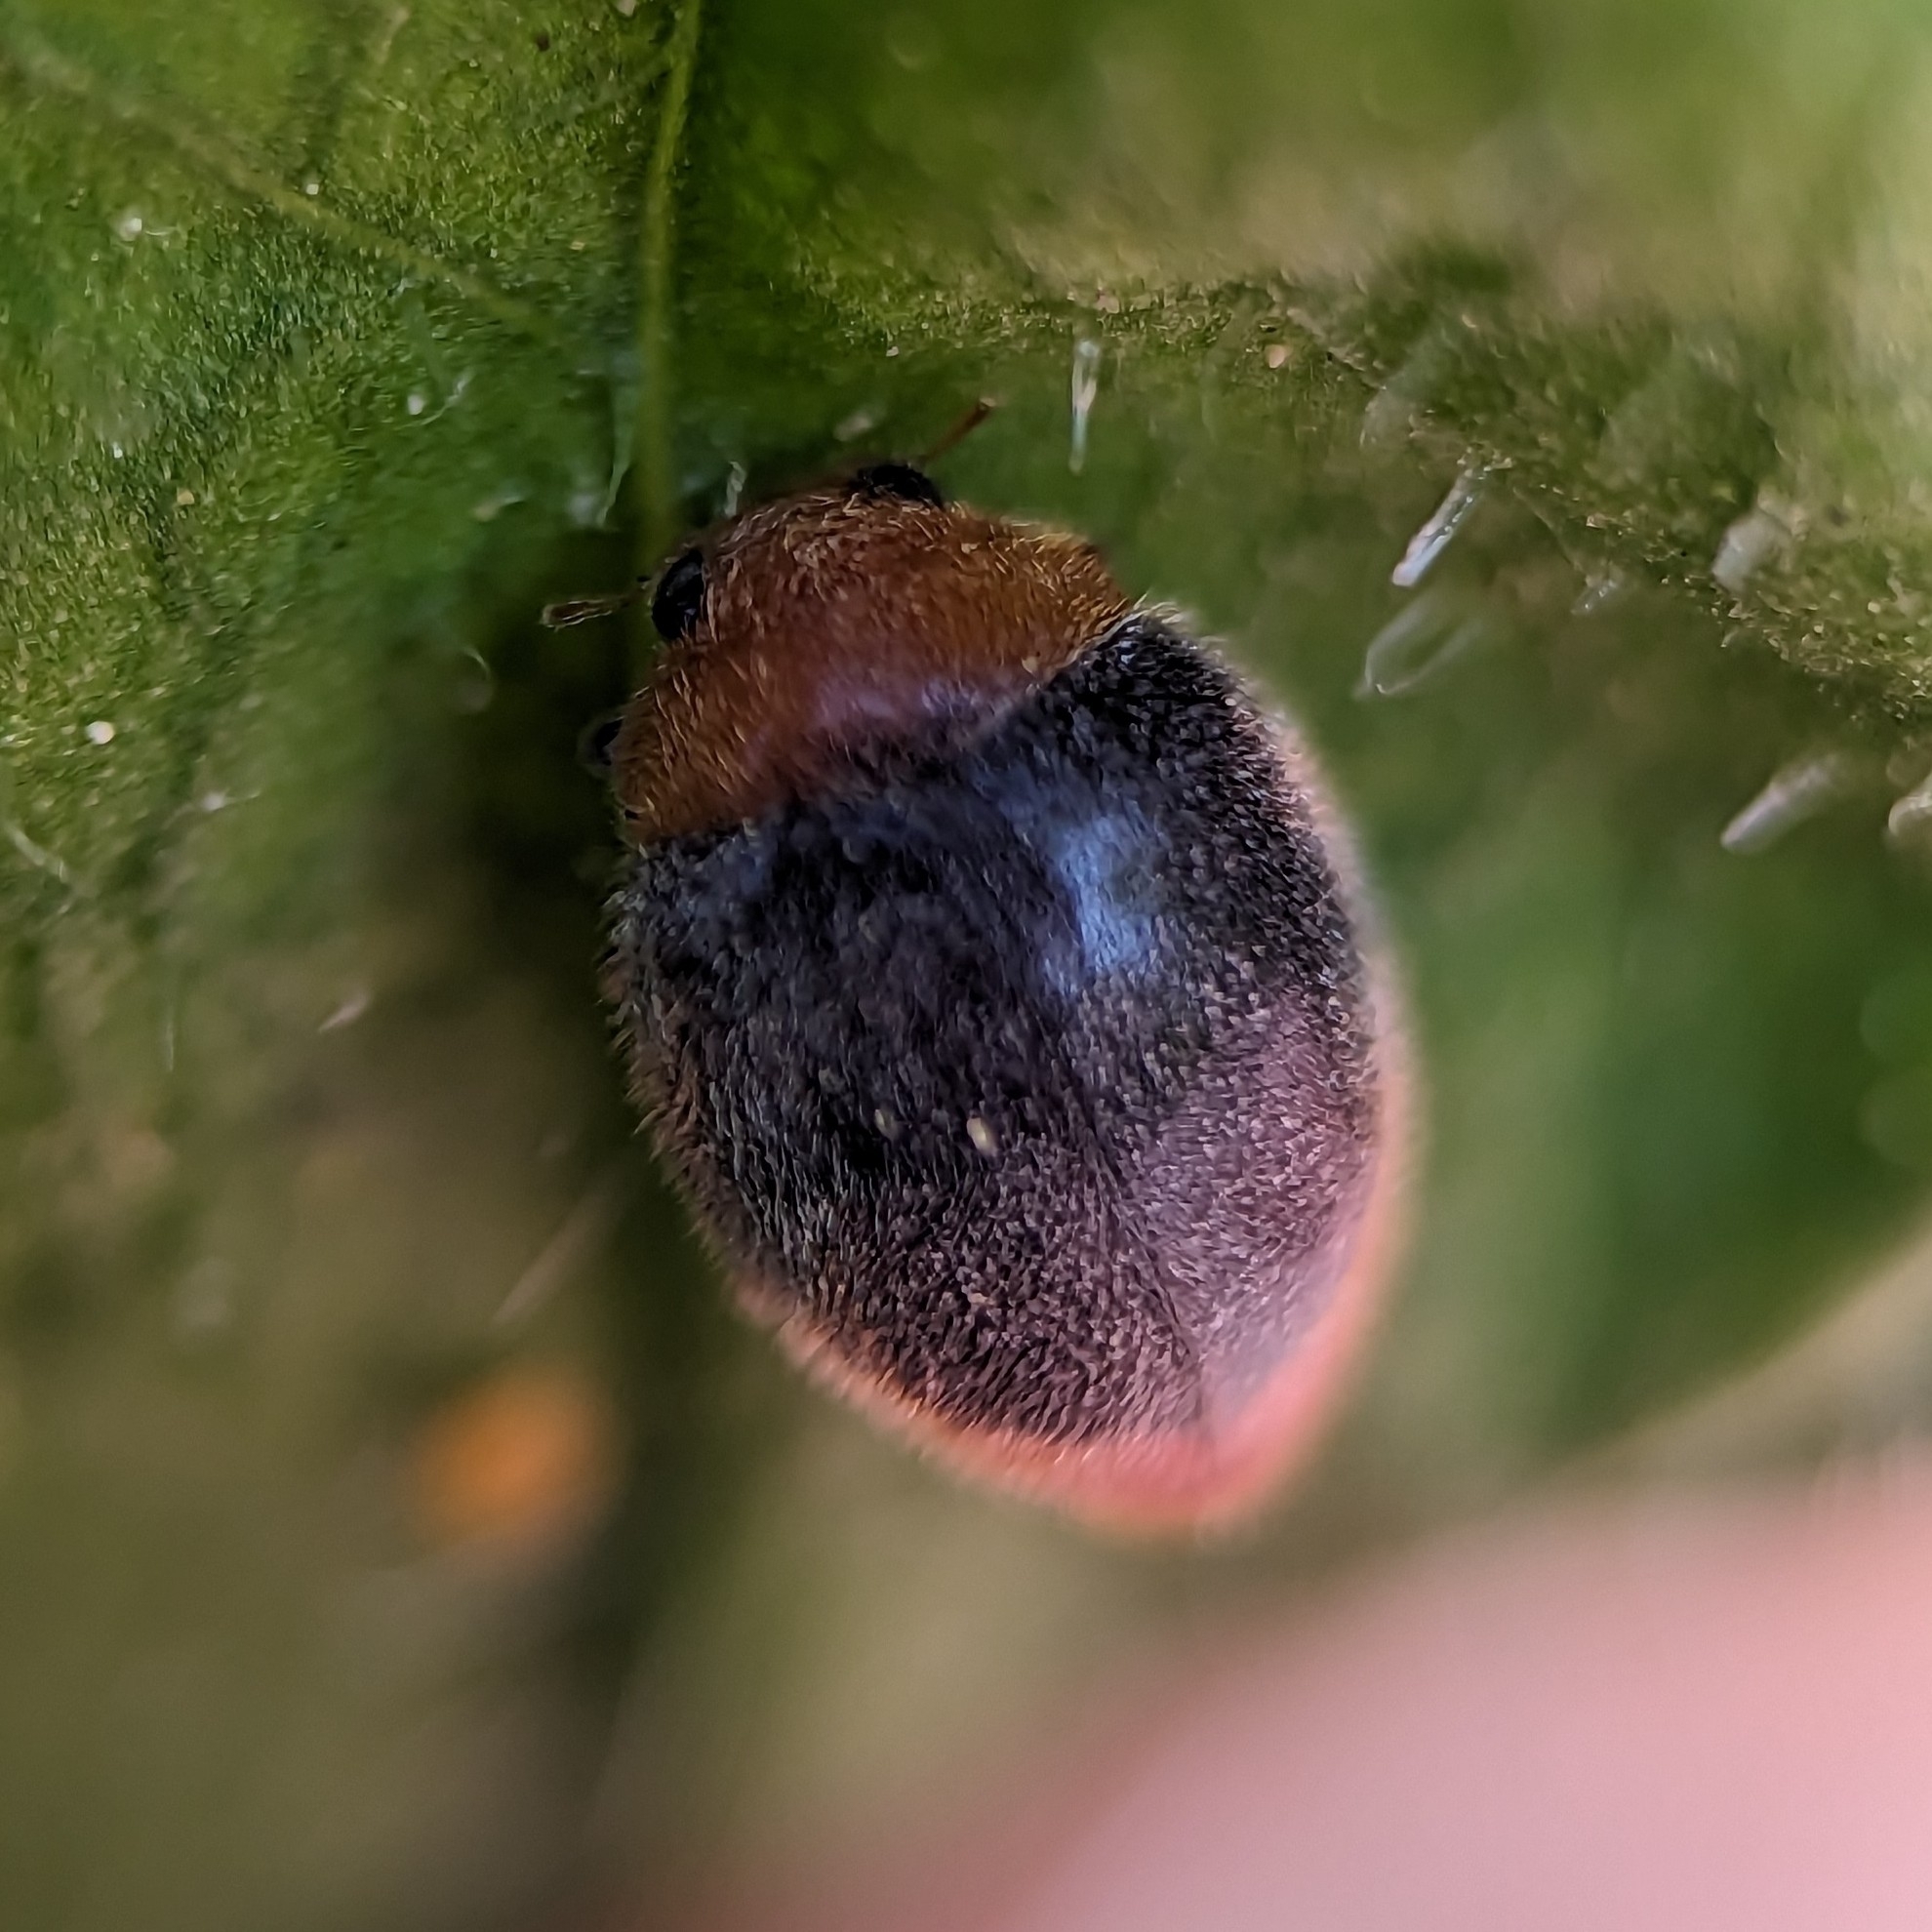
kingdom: Animalia
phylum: Arthropoda
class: Insecta
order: Coleoptera
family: Coccinellidae
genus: Cryptolaemus
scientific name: Cryptolaemus montrouzieri
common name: Mealybug destroyer
